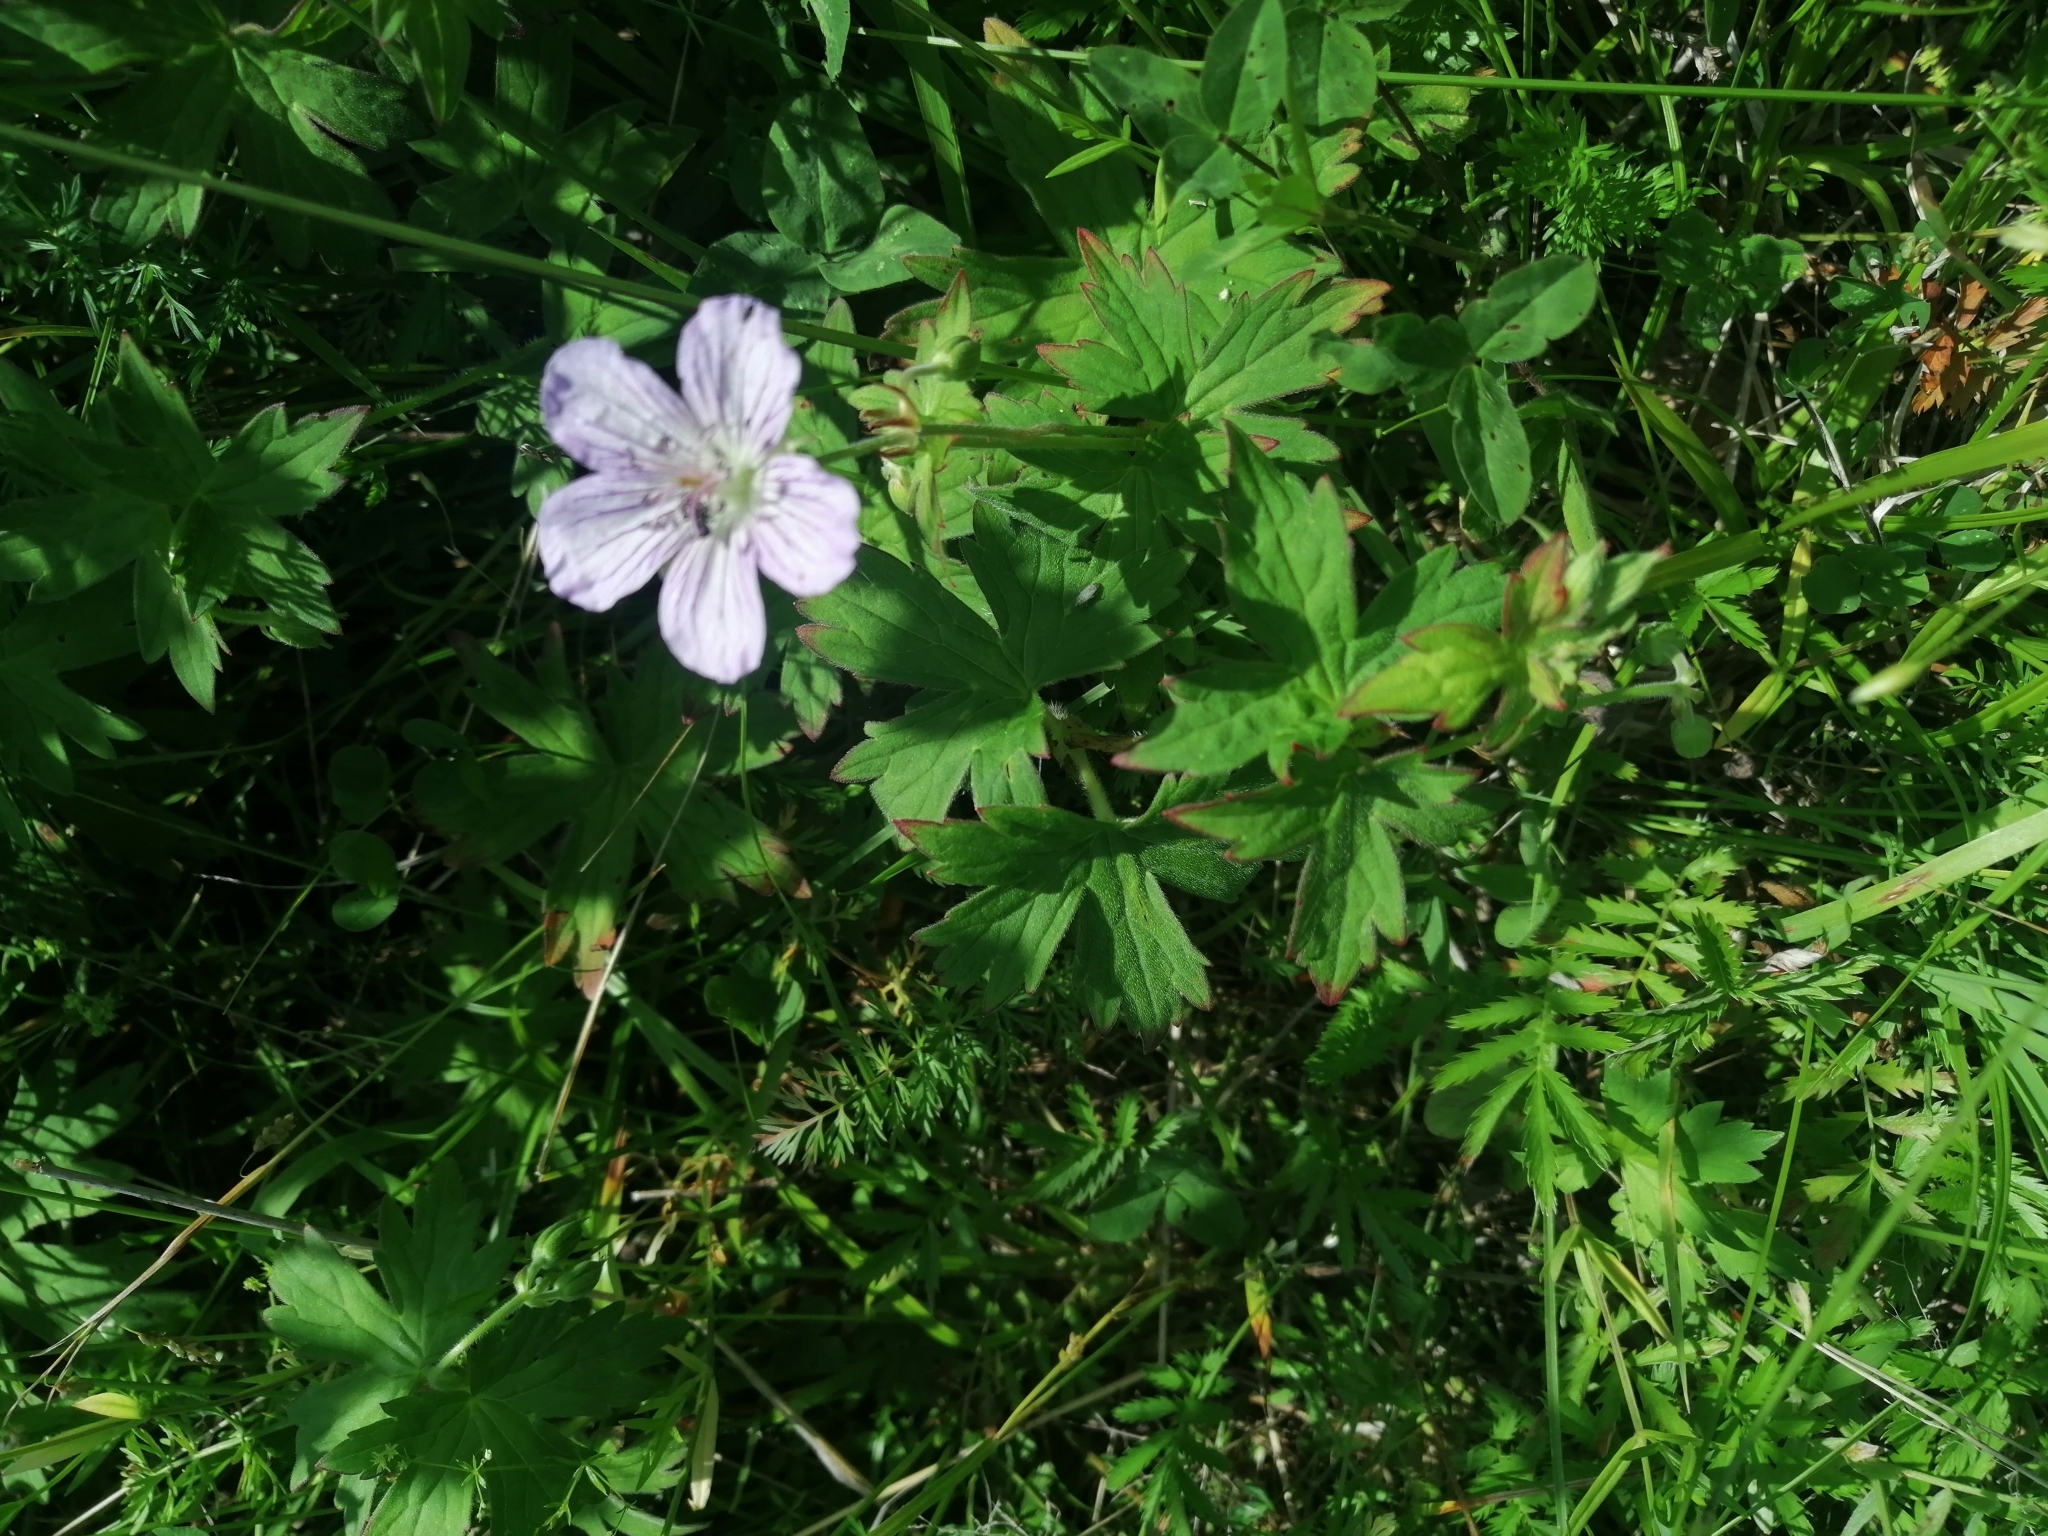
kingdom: Plantae
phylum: Tracheophyta
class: Magnoliopsida
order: Geraniales
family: Geraniaceae
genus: Geranium
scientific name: Geranium wlassovianum
